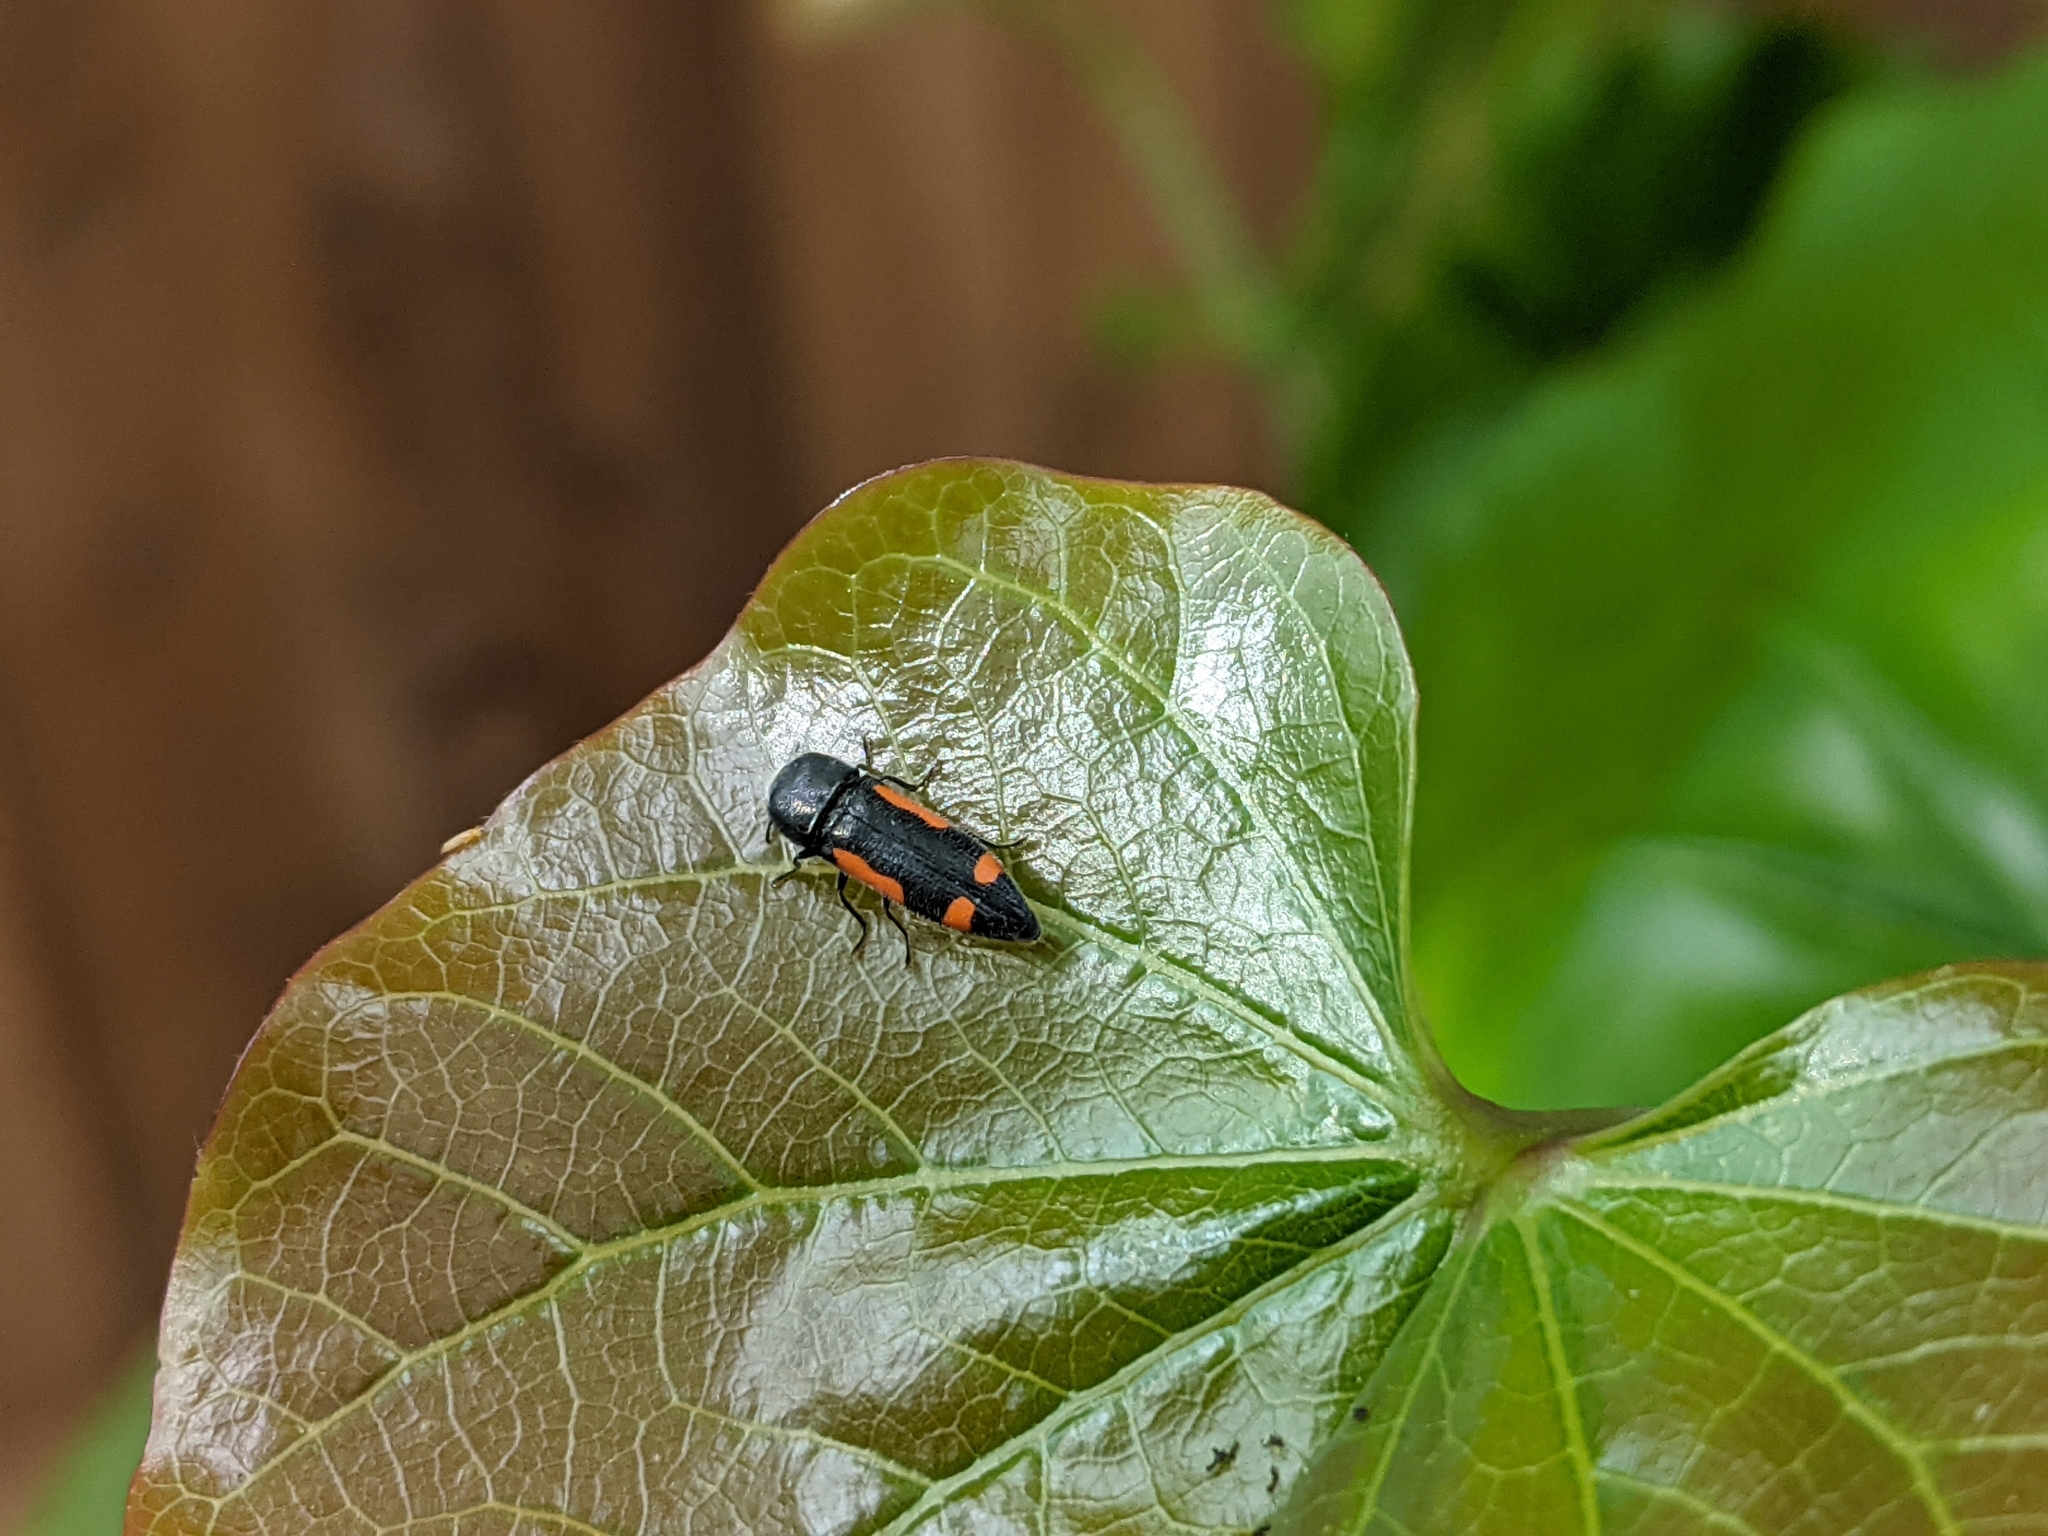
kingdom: Animalia
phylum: Arthropoda
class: Insecta
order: Coleoptera
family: Buprestidae
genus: Ptosima
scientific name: Ptosima laeta
